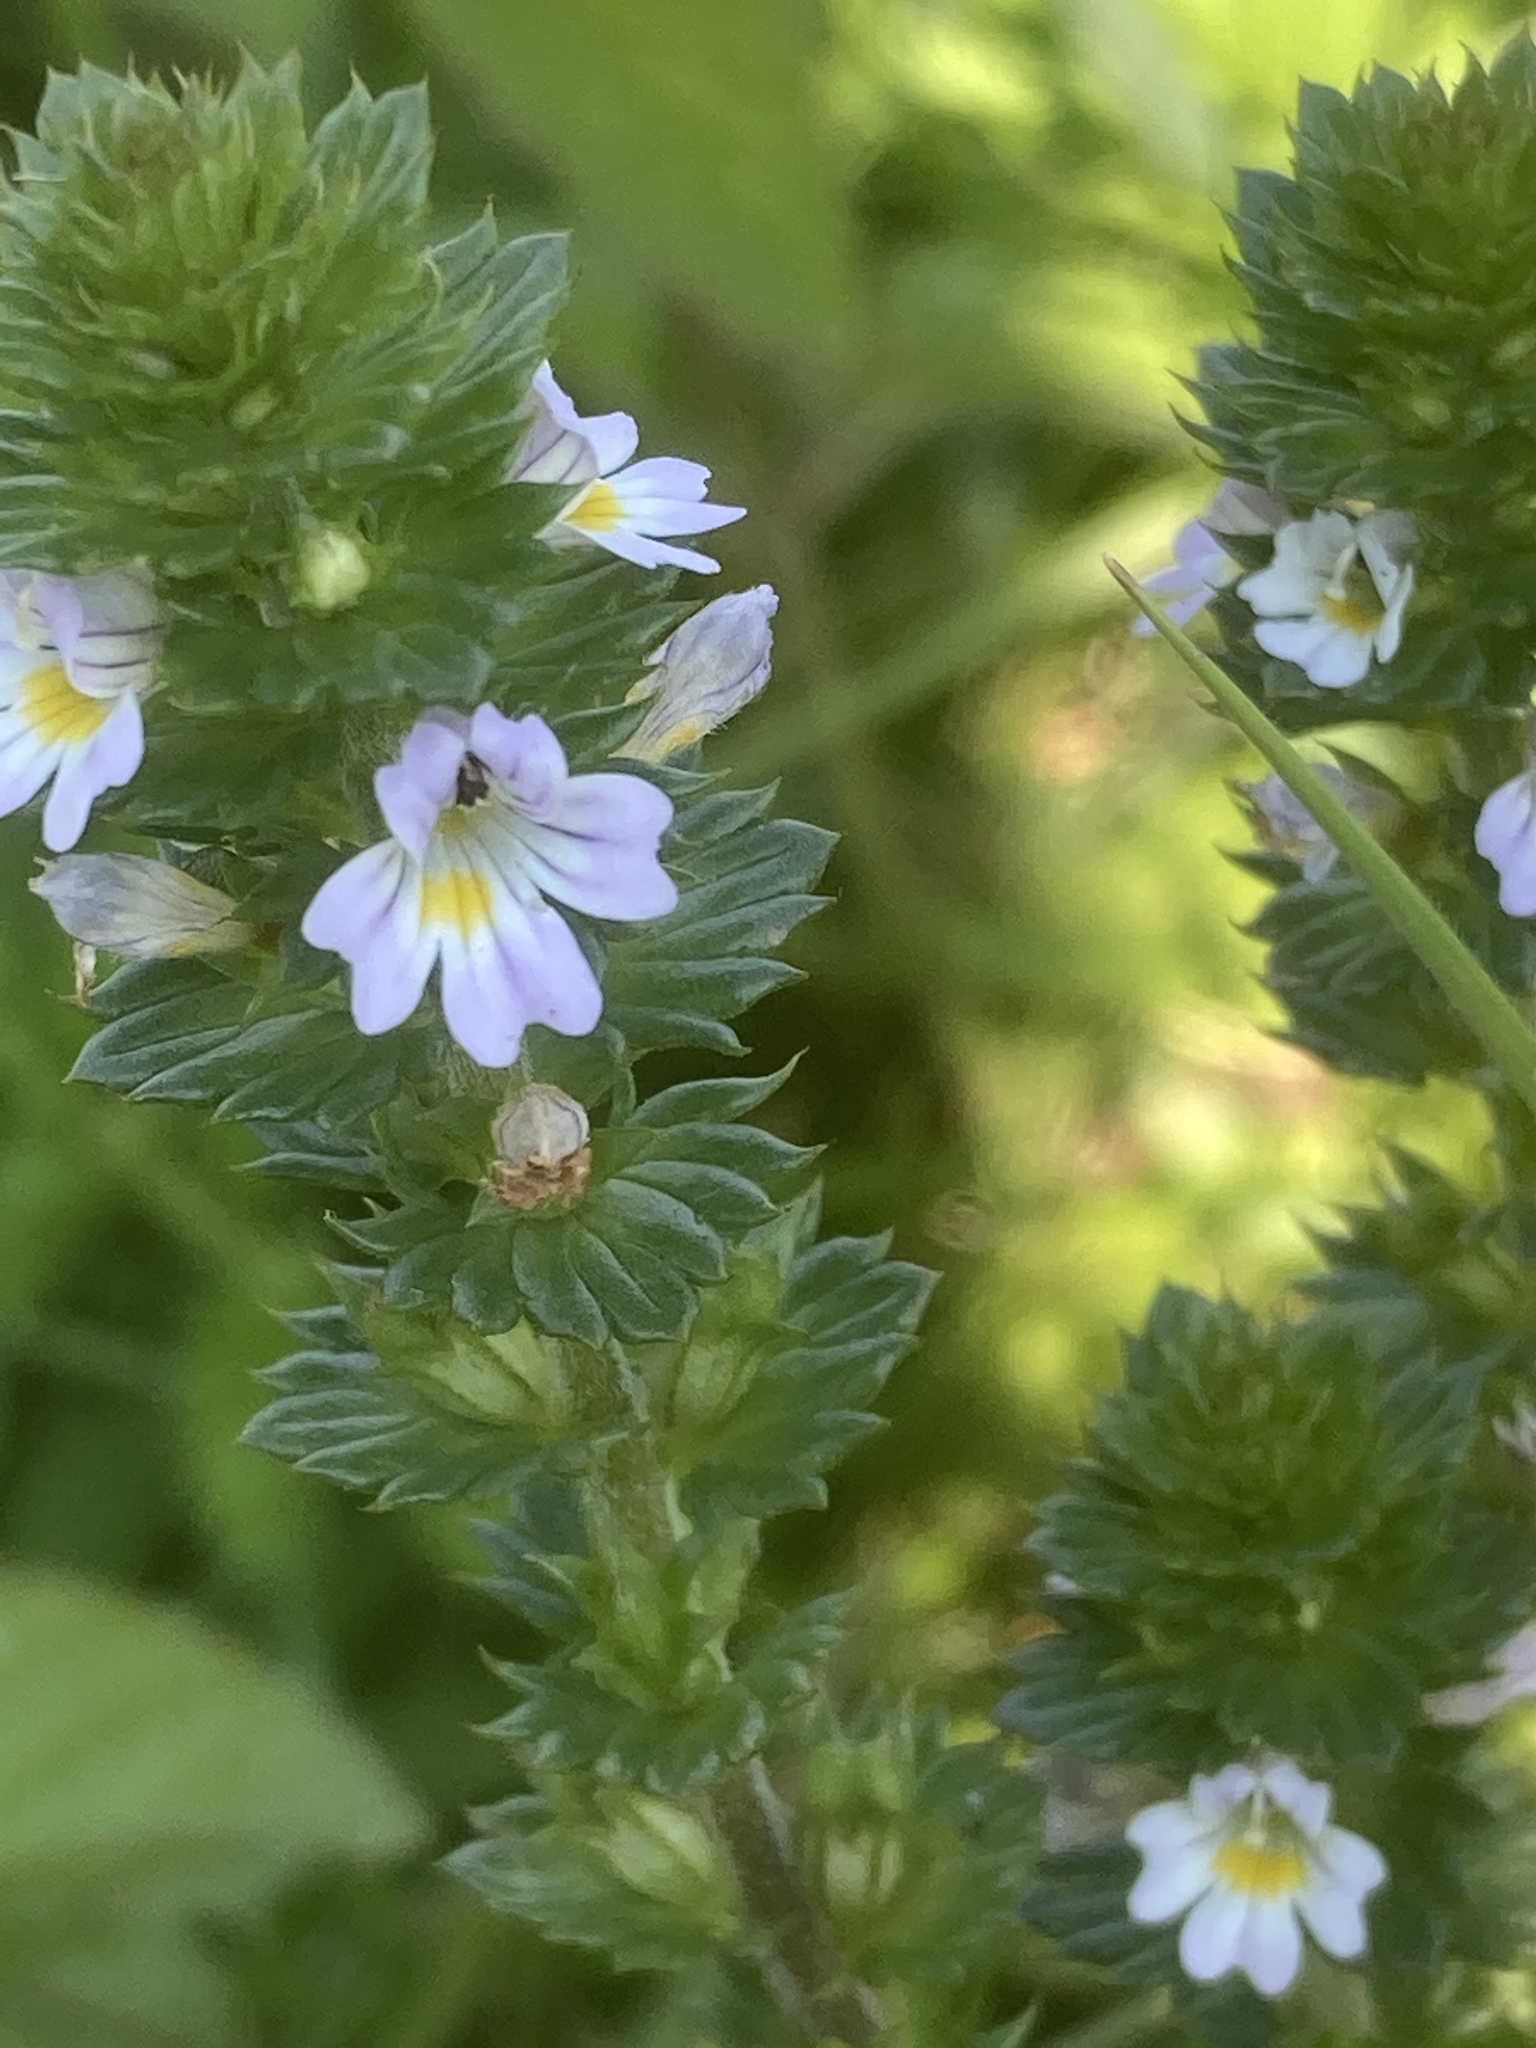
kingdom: Plantae
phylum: Tracheophyta
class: Magnoliopsida
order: Lamiales
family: Orobanchaceae
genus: Euphrasia
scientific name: Euphrasia stricta
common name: Drug eyebright
